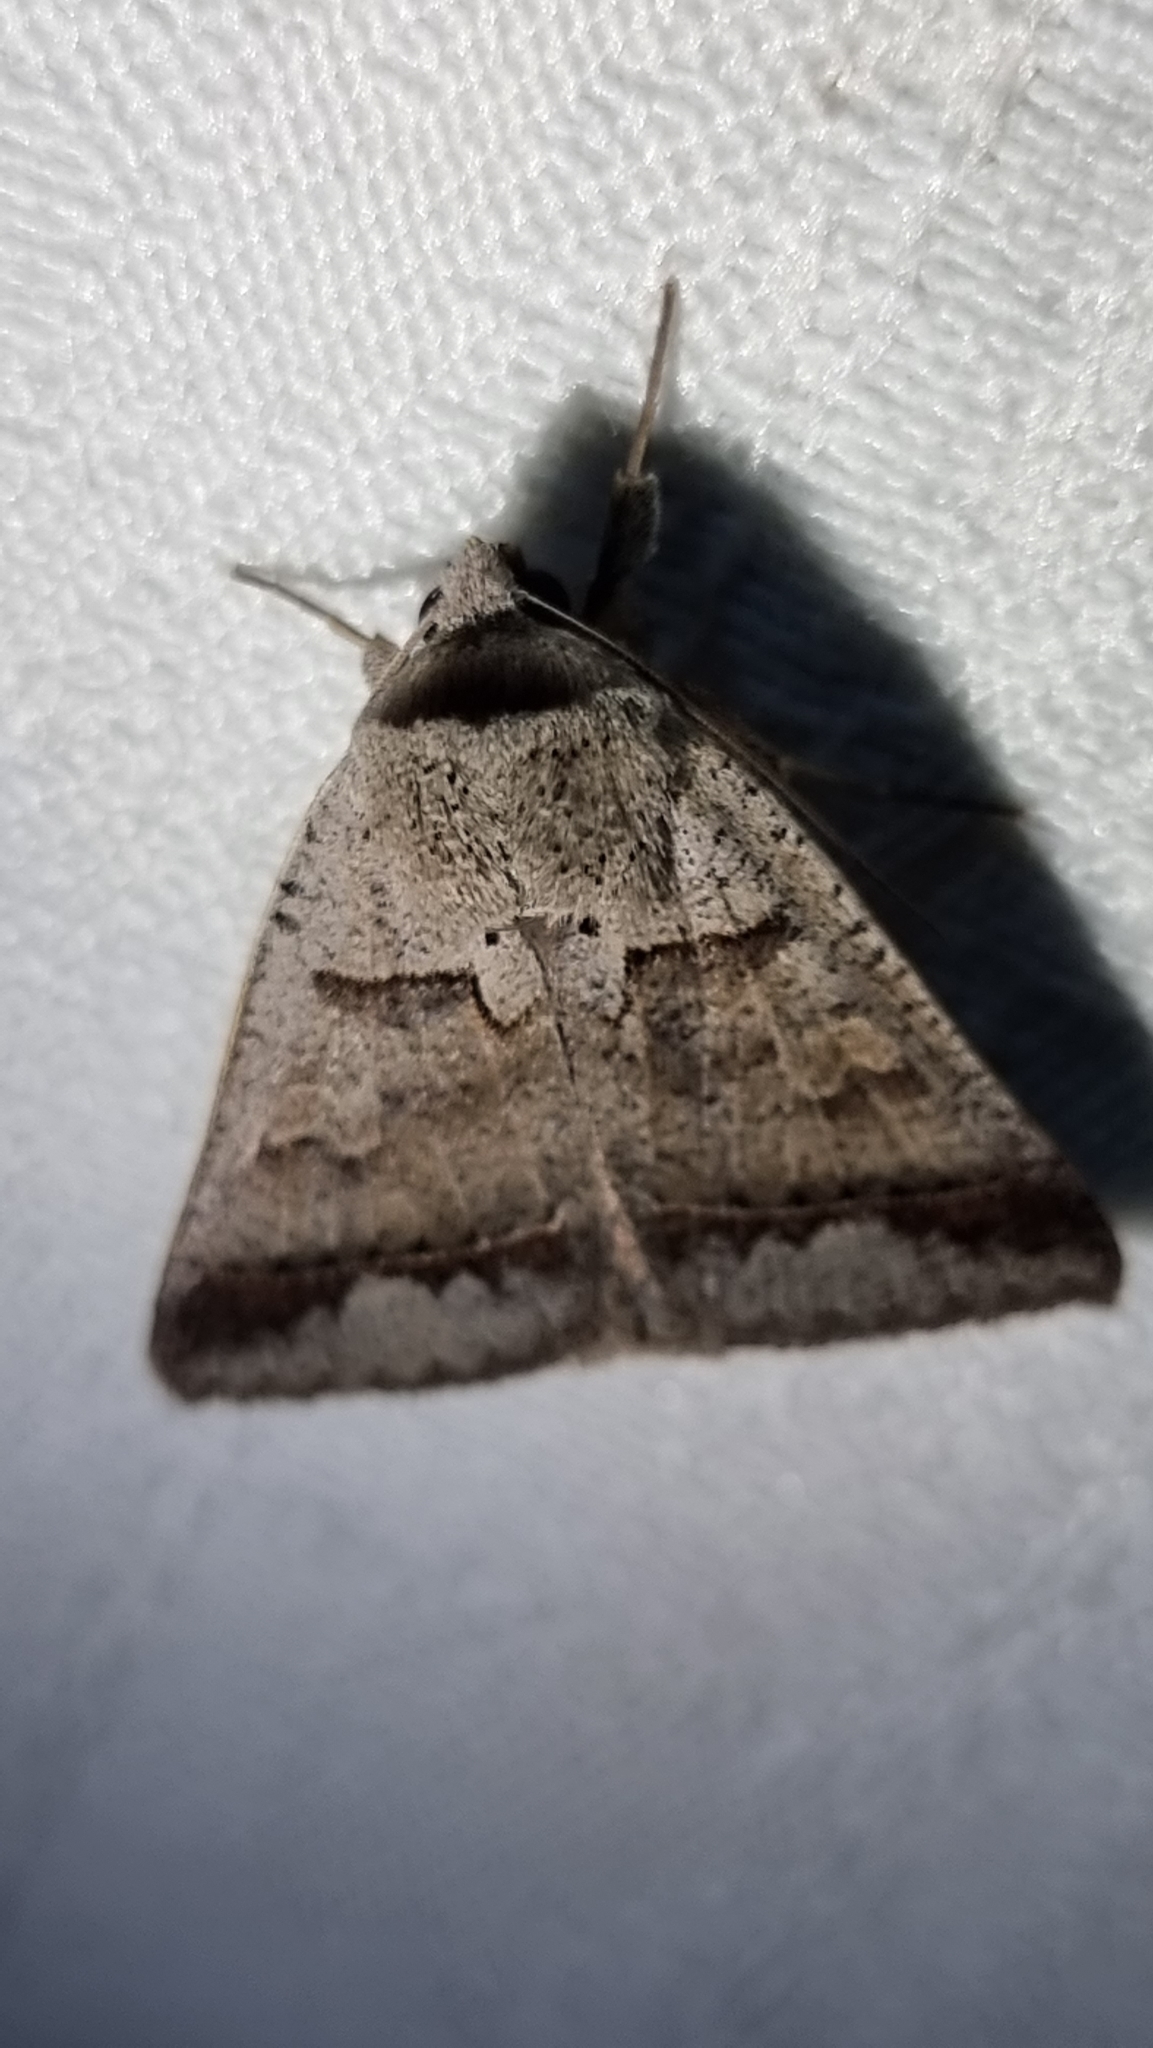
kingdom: Animalia
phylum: Arthropoda
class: Insecta
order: Lepidoptera
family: Erebidae
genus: Pantydia
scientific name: Pantydia sparsa
